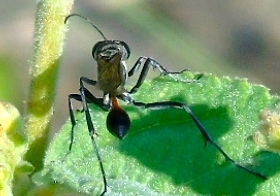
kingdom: Animalia
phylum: Arthropoda
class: Insecta
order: Hymenoptera
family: Sphecidae
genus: Ammophila
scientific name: Ammophila
